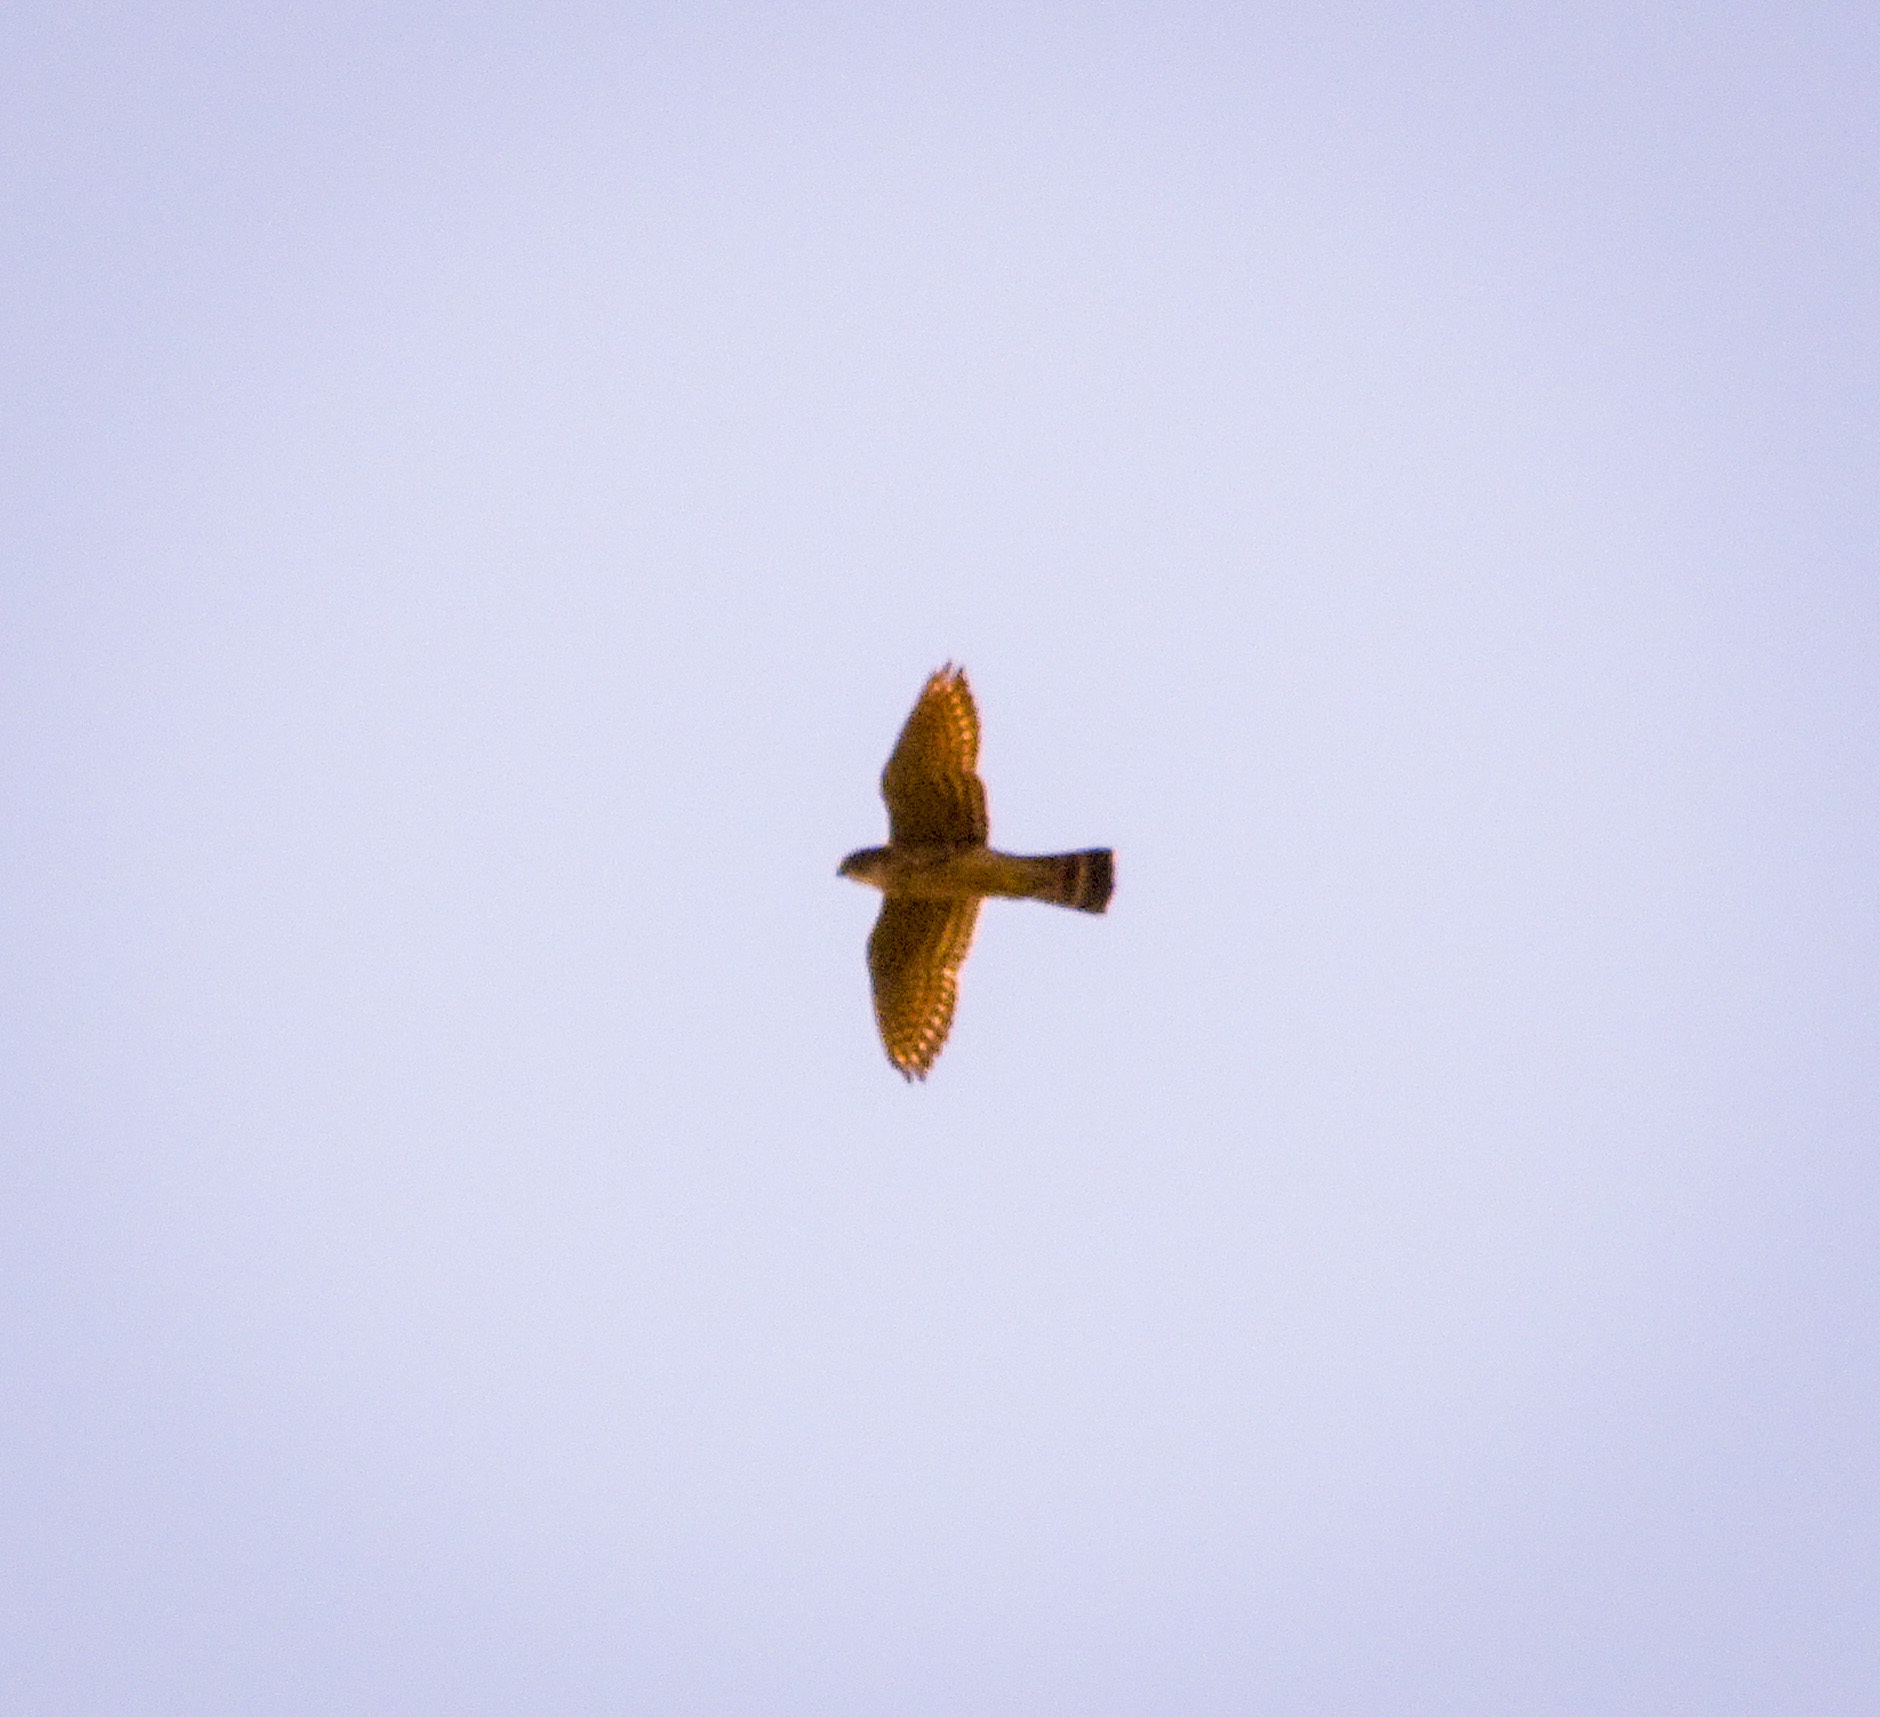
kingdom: Animalia
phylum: Chordata
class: Aves
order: Falconiformes
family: Falconidae
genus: Falco
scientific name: Falco columbarius
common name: Merlin
